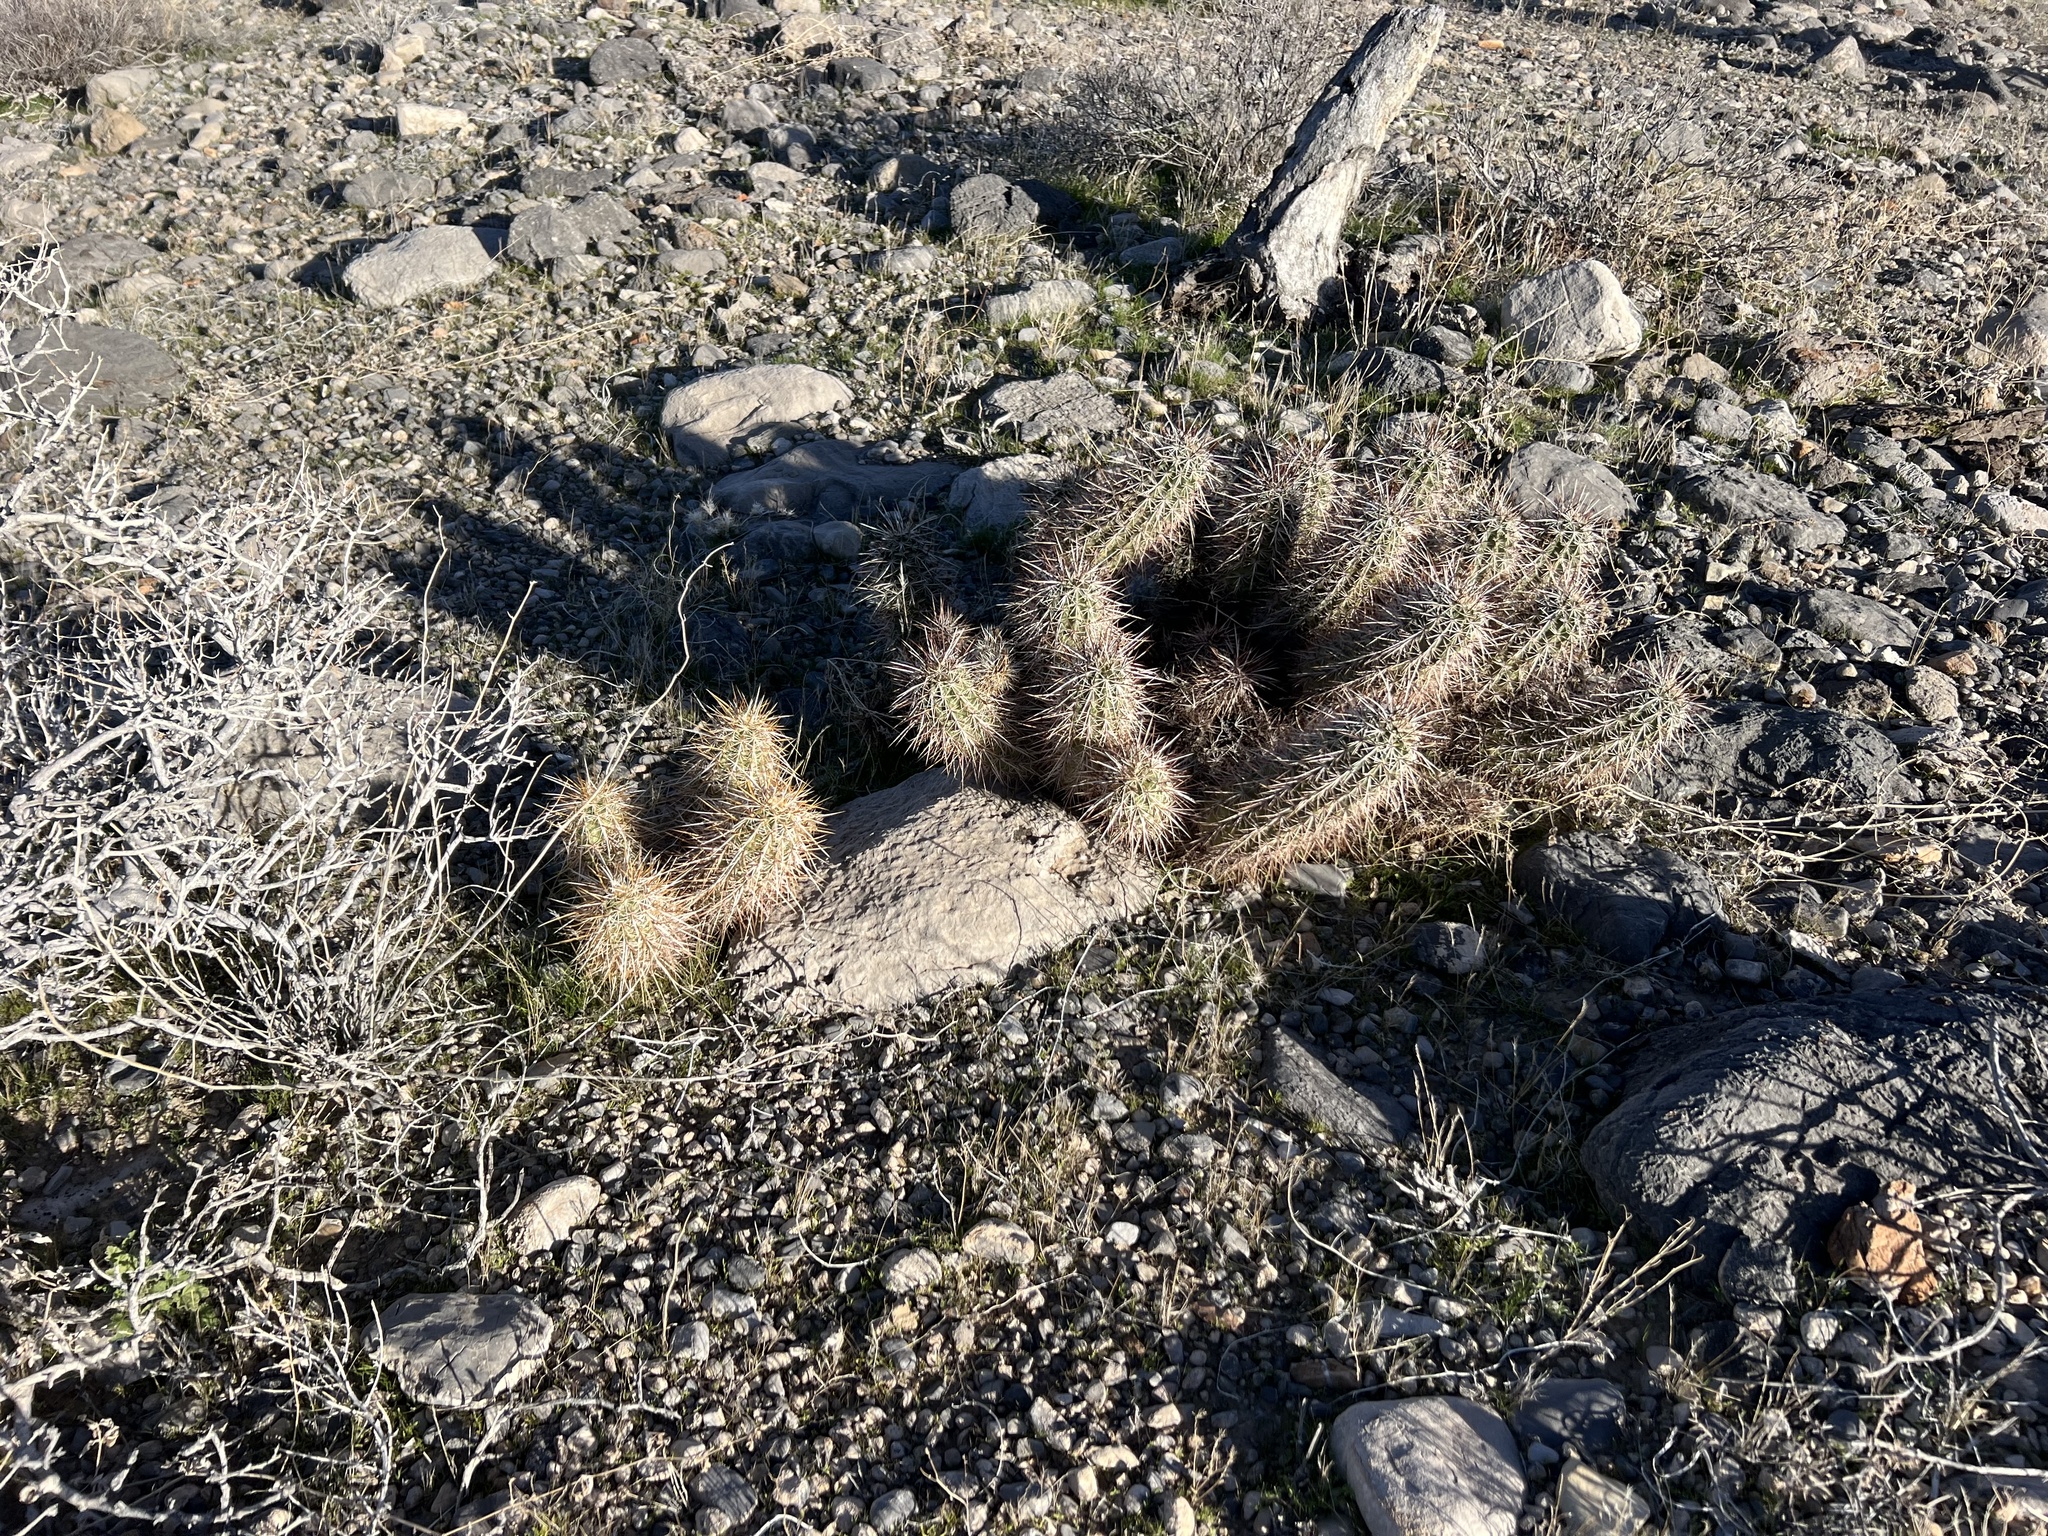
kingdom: Plantae
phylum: Tracheophyta
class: Magnoliopsida
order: Caryophyllales
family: Cactaceae
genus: Echinocereus
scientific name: Echinocereus engelmannii
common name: Engelmann's hedgehog cactus
